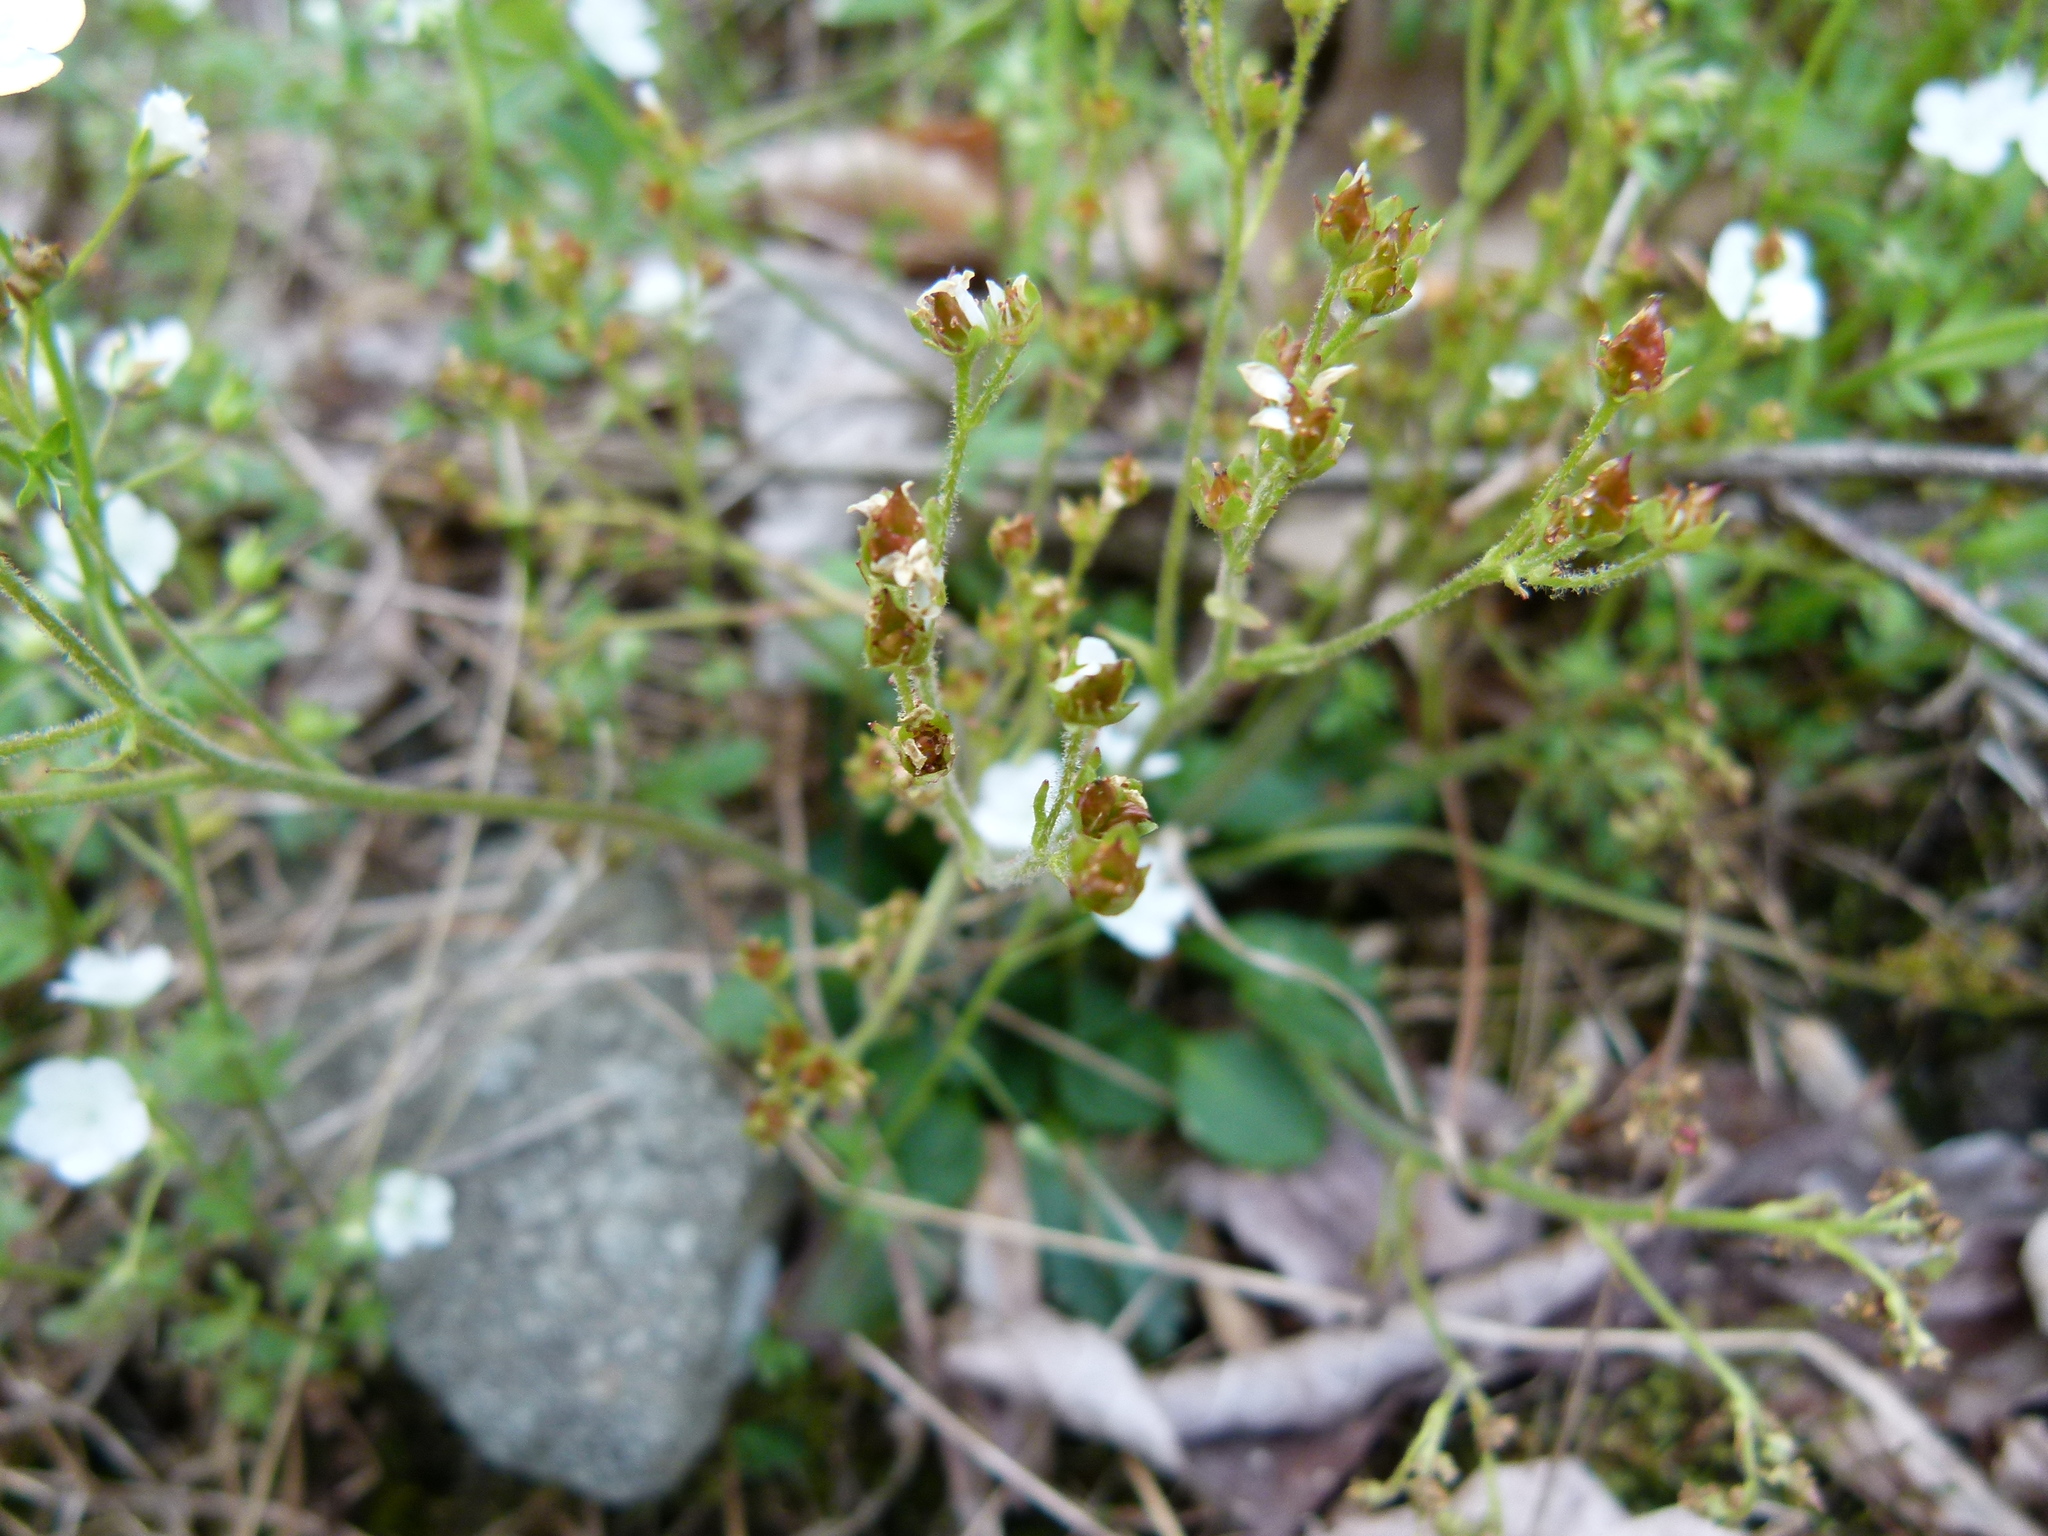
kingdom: Plantae
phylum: Tracheophyta
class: Magnoliopsida
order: Saxifragales
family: Saxifragaceae
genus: Micranthes
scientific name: Micranthes virginiensis
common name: Early saxifrage
